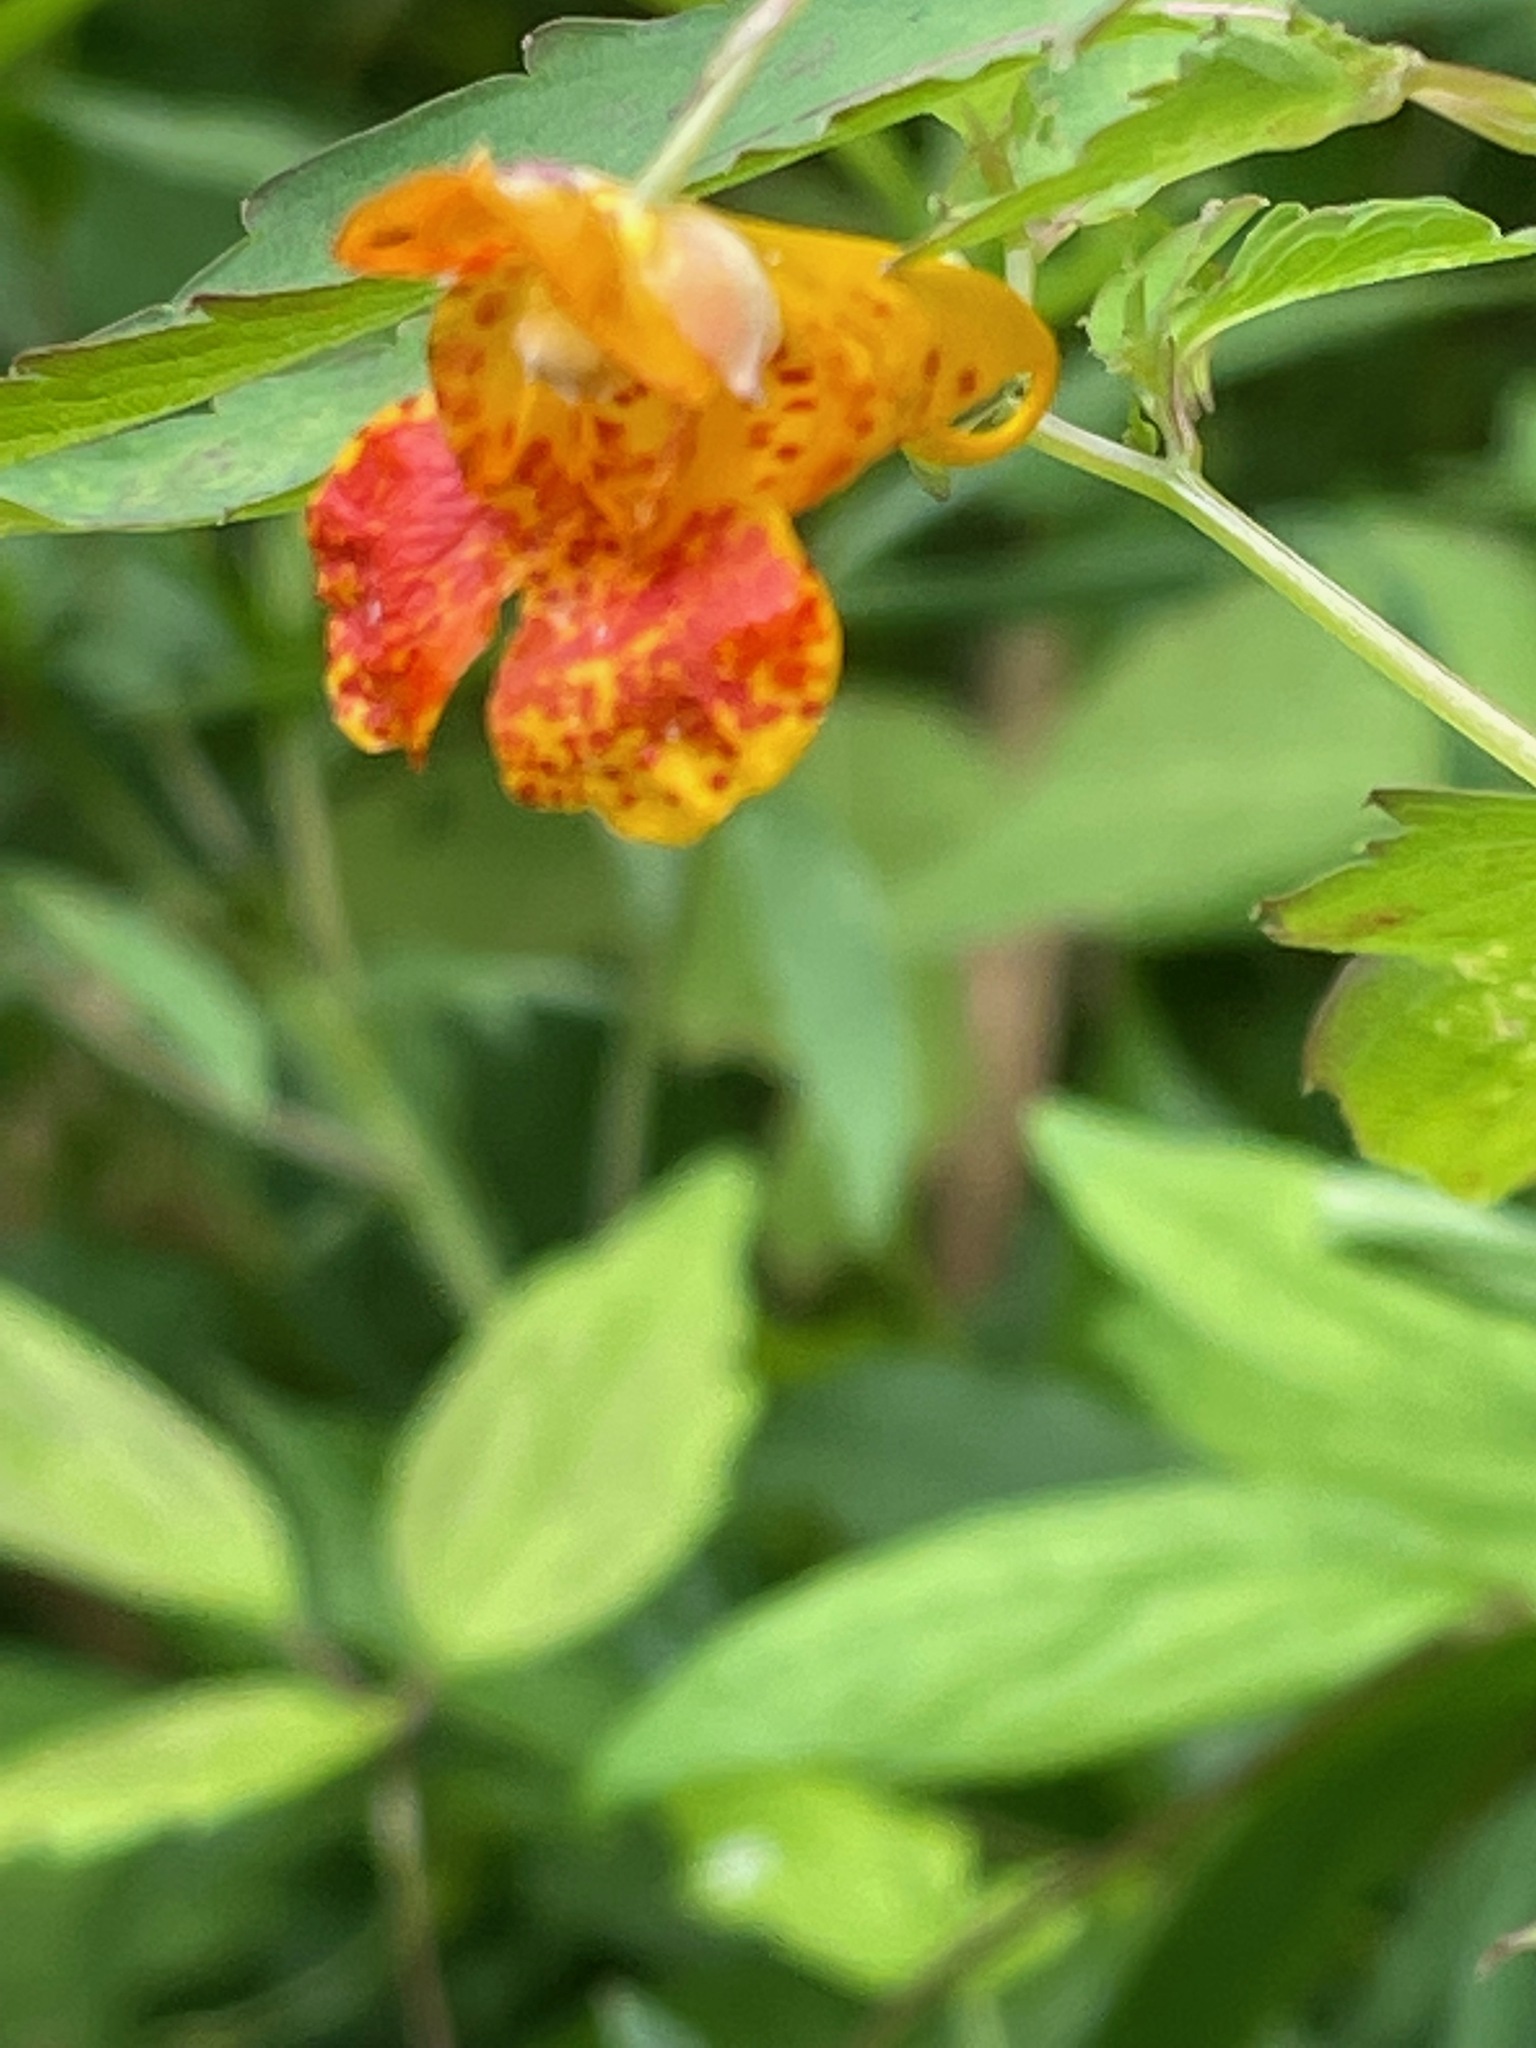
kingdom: Plantae
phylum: Tracheophyta
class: Magnoliopsida
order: Ericales
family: Balsaminaceae
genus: Impatiens
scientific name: Impatiens capensis
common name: Orange balsam
